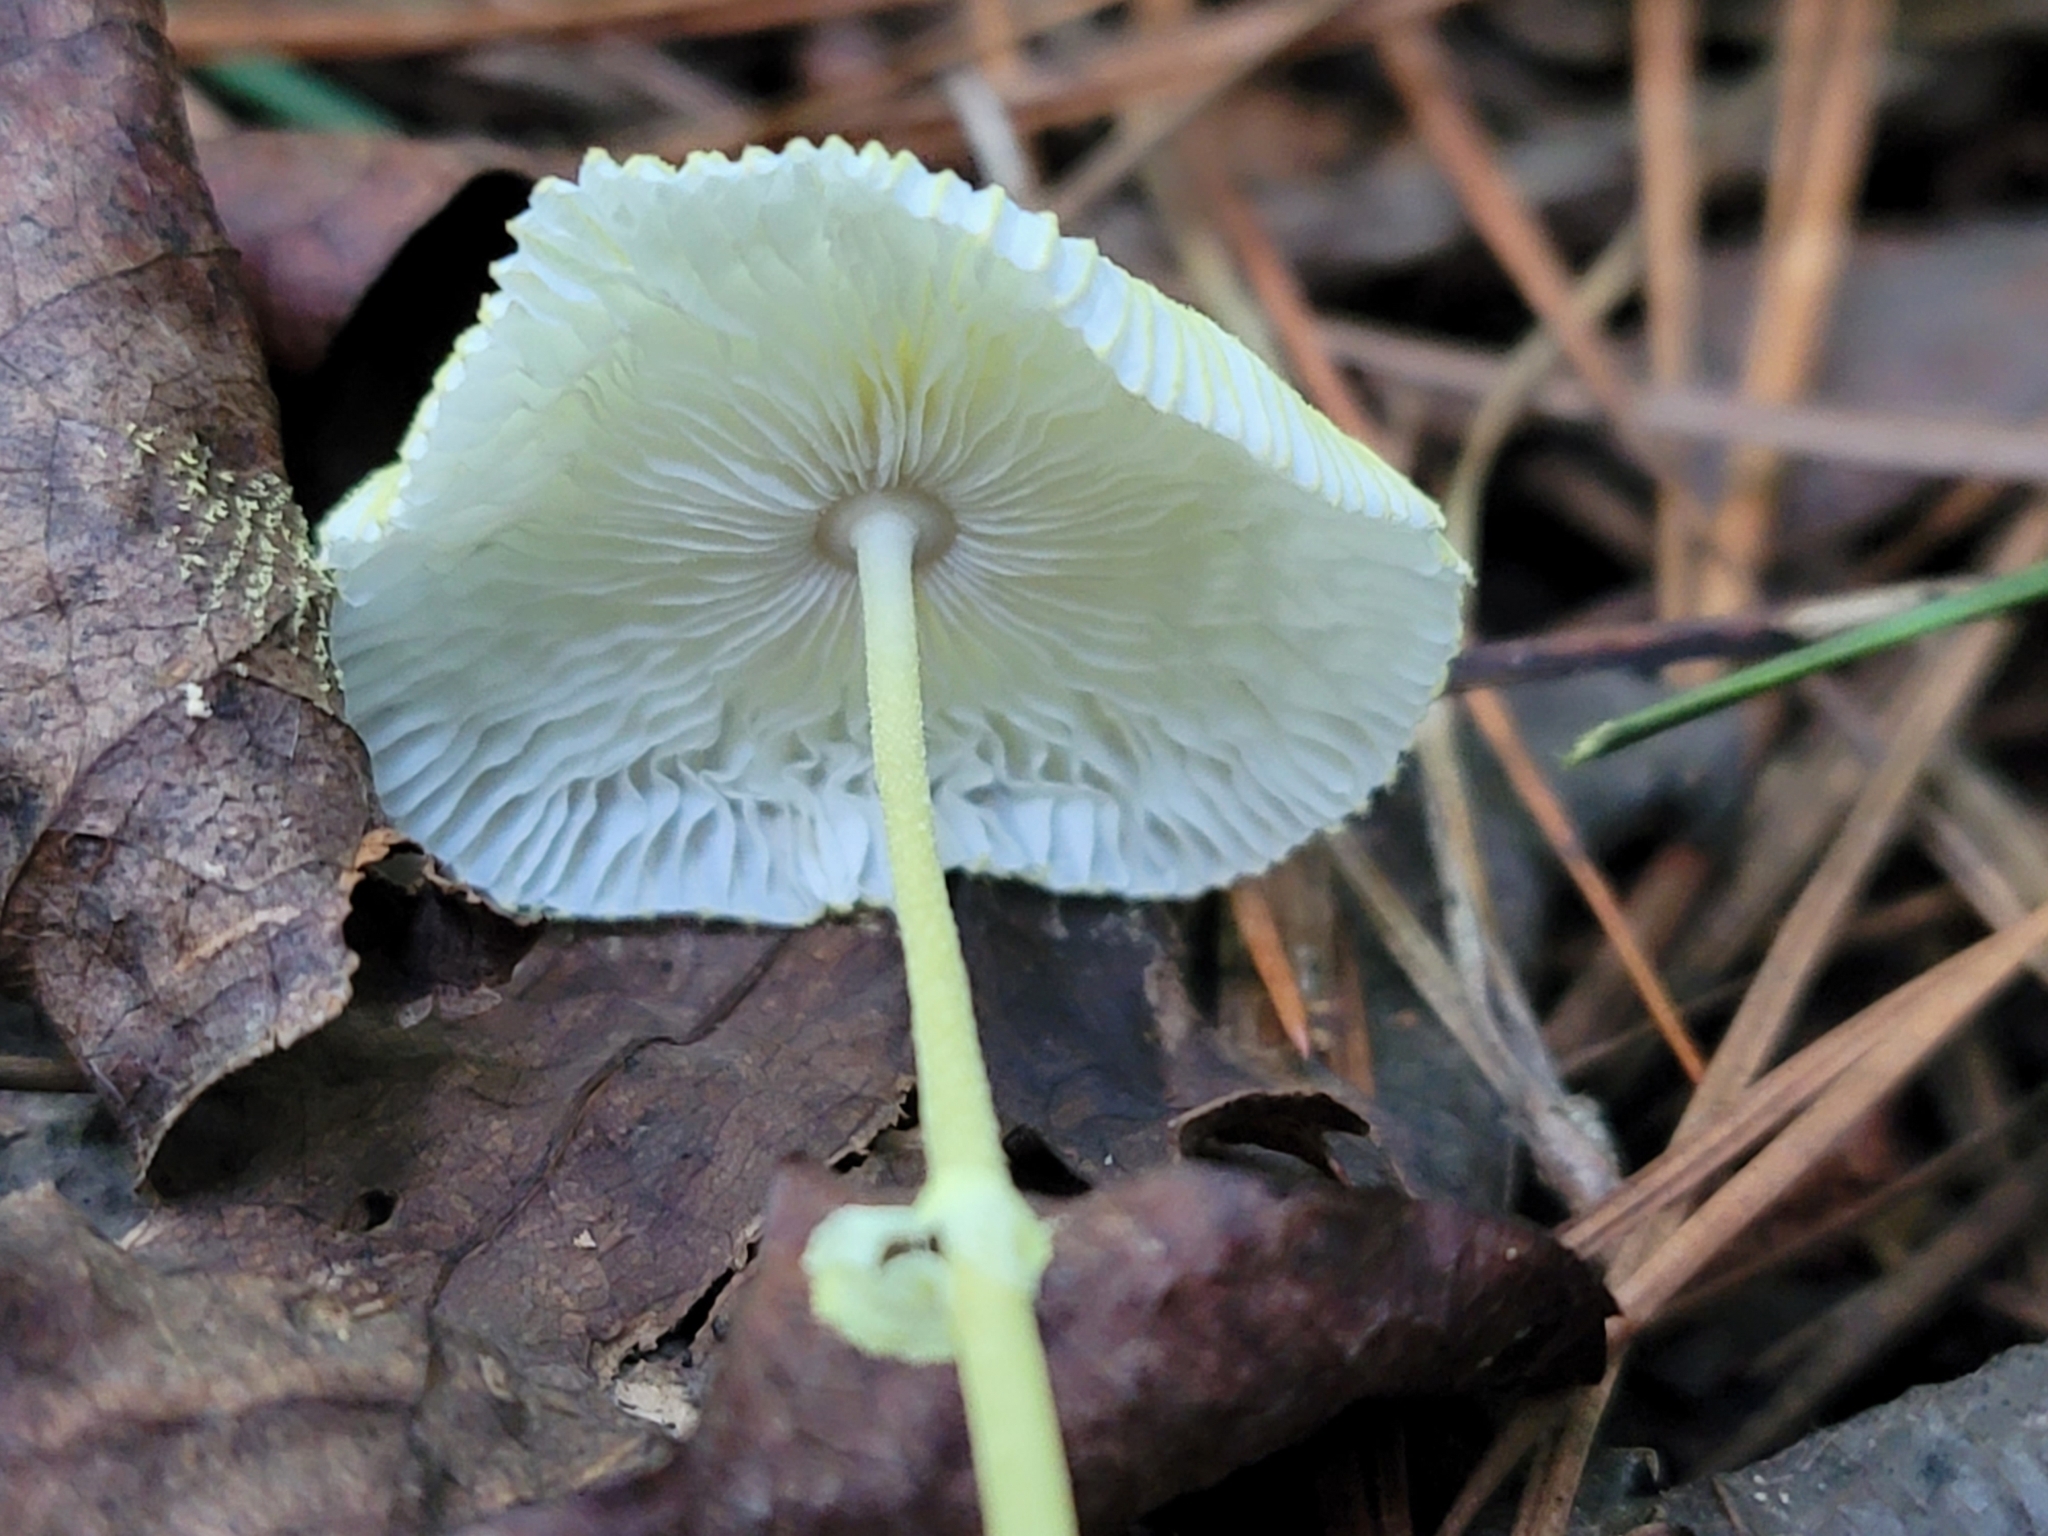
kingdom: Fungi
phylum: Basidiomycota
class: Agaricomycetes
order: Agaricales
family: Agaricaceae
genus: Leucocoprinus
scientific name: Leucocoprinus fragilissimus
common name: Fragile dapperling
